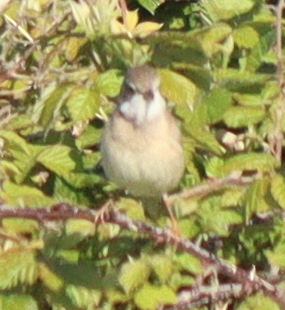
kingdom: Animalia
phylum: Chordata
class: Aves
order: Passeriformes
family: Sylviidae
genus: Sylvia
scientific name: Sylvia communis
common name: Common whitethroat
